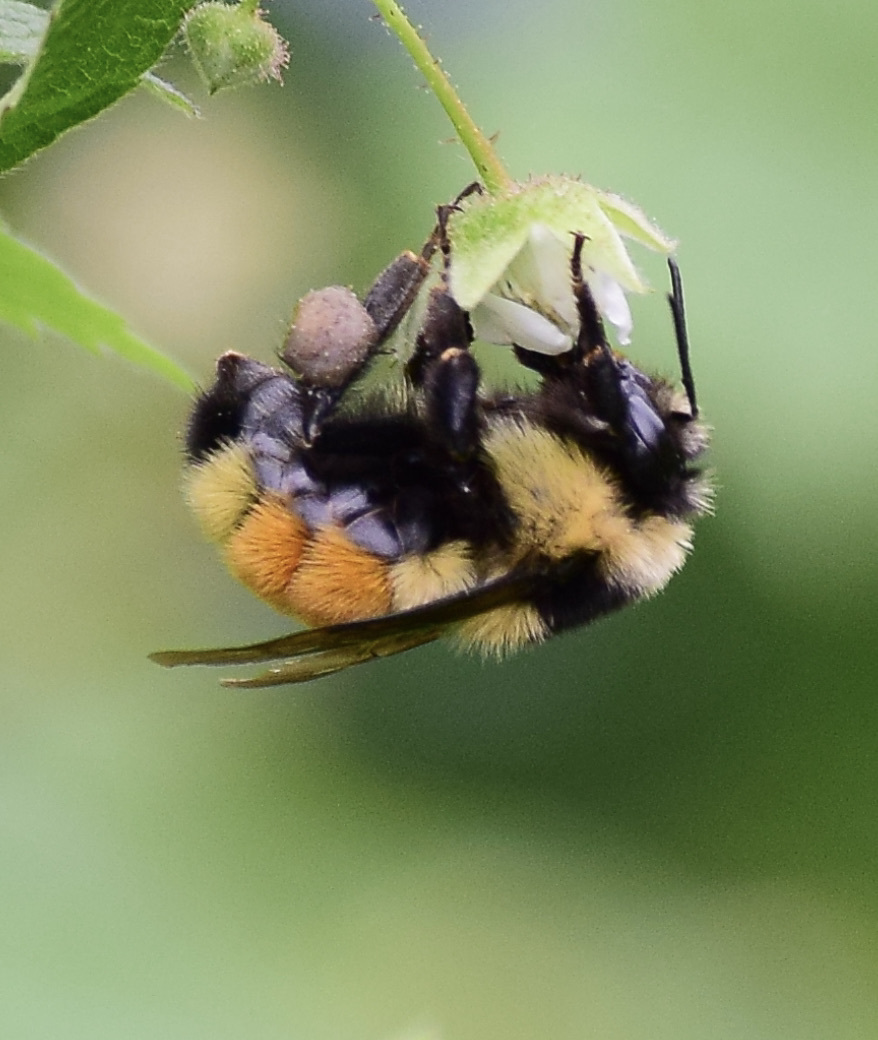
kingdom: Animalia
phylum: Arthropoda
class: Insecta
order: Hymenoptera
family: Apidae
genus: Bombus
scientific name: Bombus ternarius
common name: Tri-colored bumble bee
